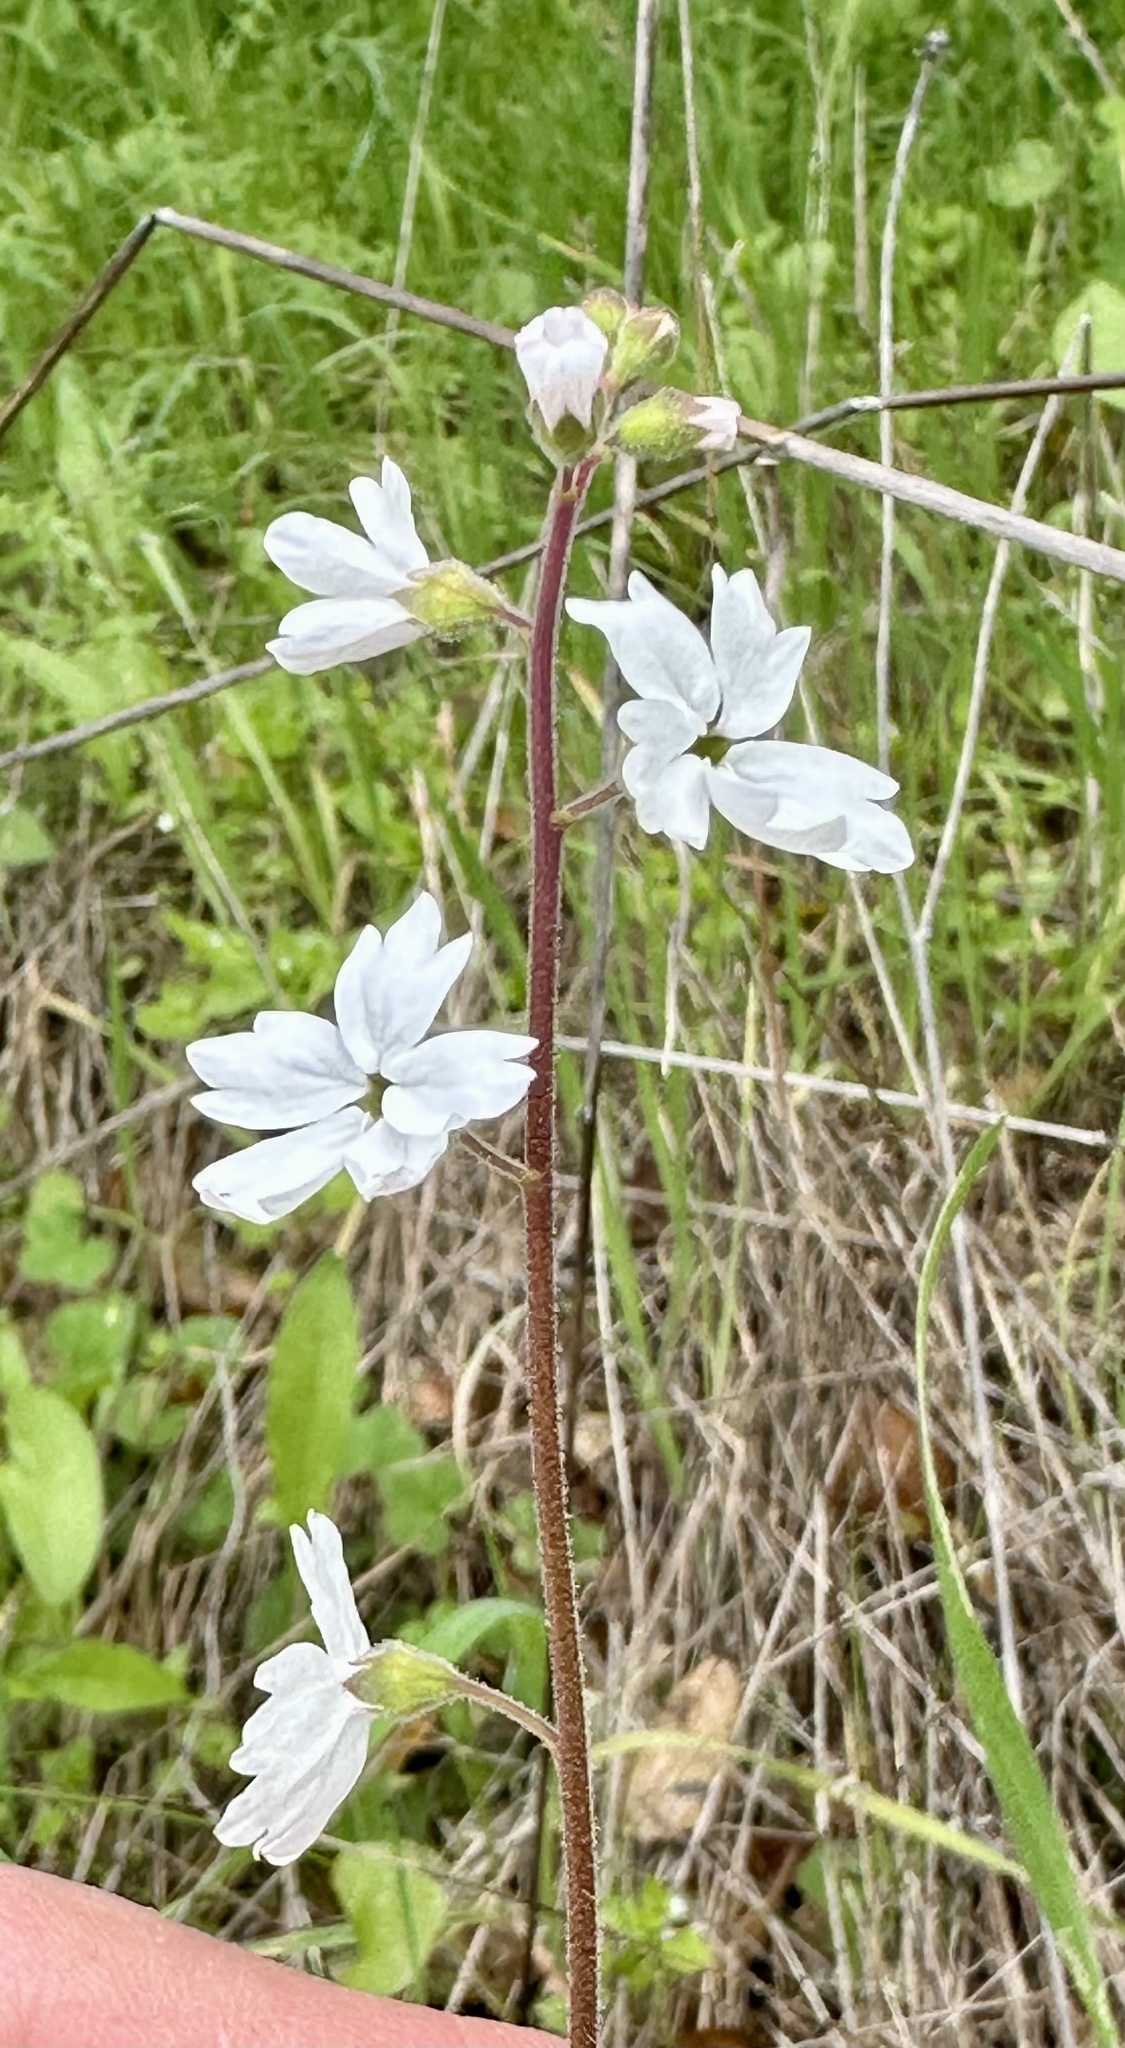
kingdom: Plantae
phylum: Tracheophyta
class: Magnoliopsida
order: Saxifragales
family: Saxifragaceae
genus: Lithophragma
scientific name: Lithophragma affine
